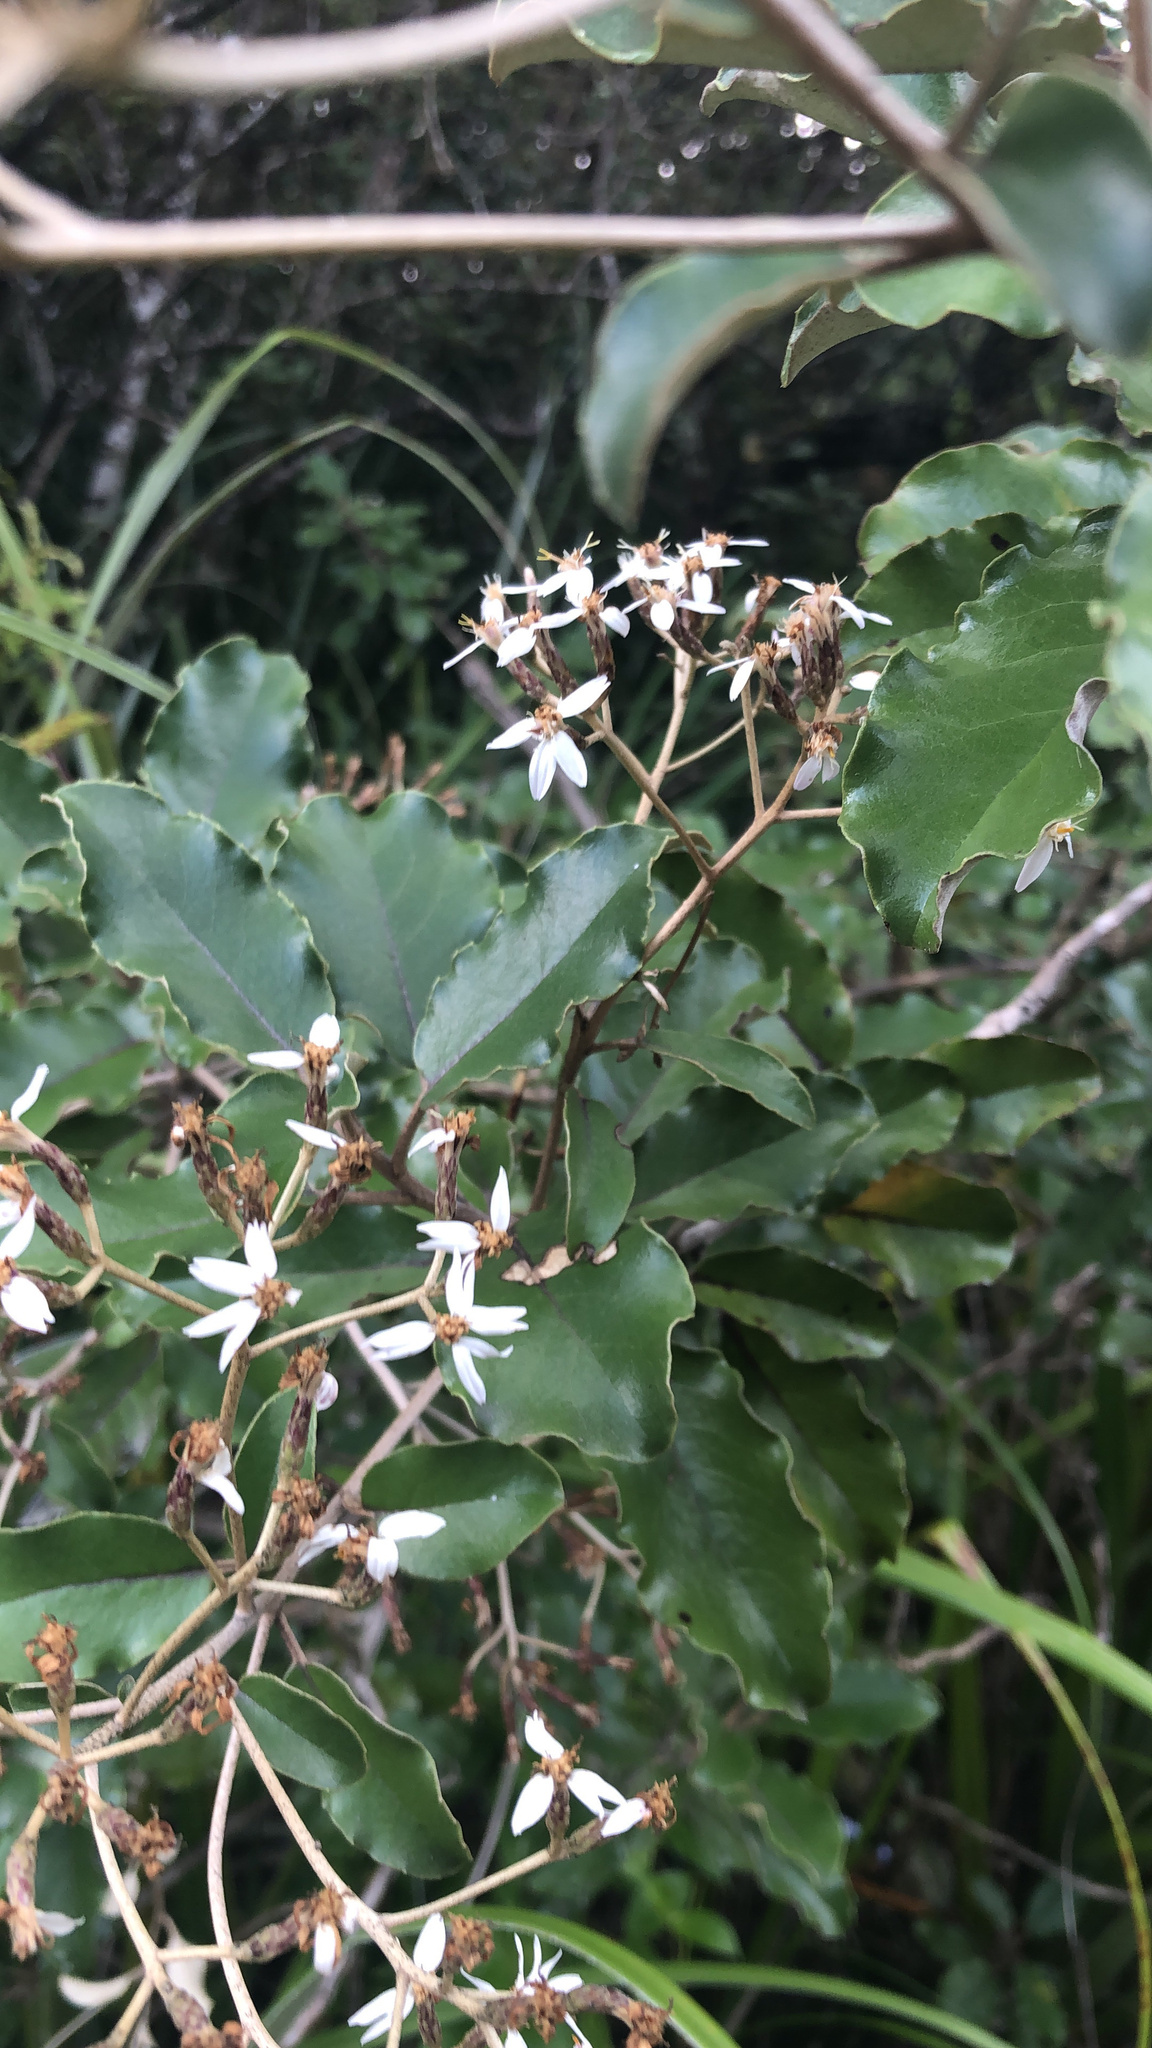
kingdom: Plantae
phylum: Tracheophyta
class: Magnoliopsida
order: Asterales
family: Asteraceae
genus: Olearia
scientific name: Olearia furfuracea
